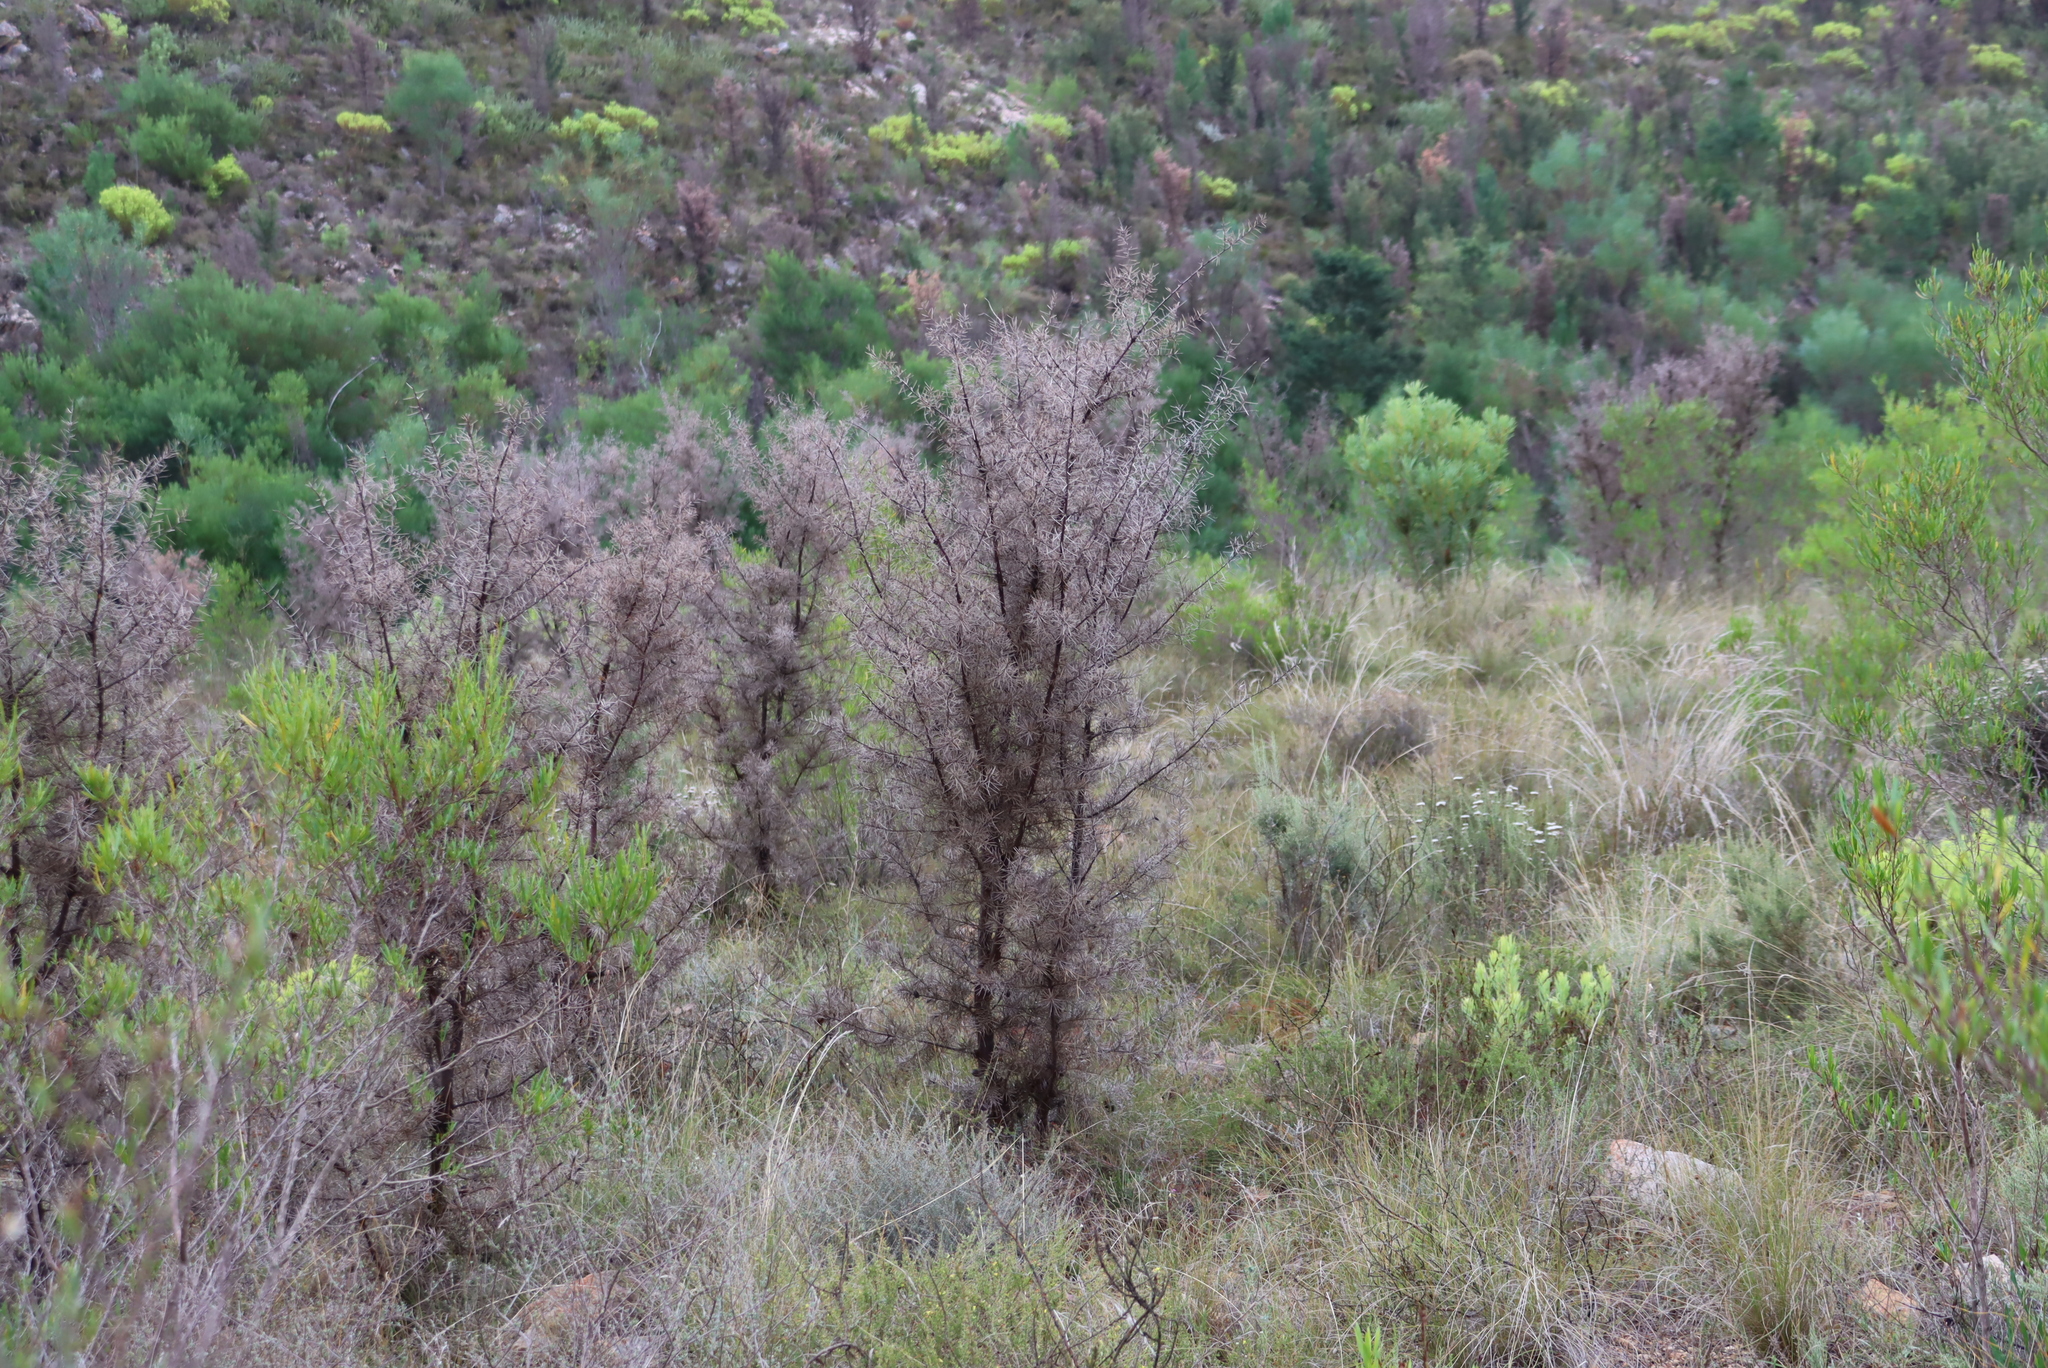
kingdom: Plantae
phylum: Tracheophyta
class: Magnoliopsida
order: Proteales
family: Proteaceae
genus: Hakea
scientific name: Hakea sericea
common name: Needle bush
